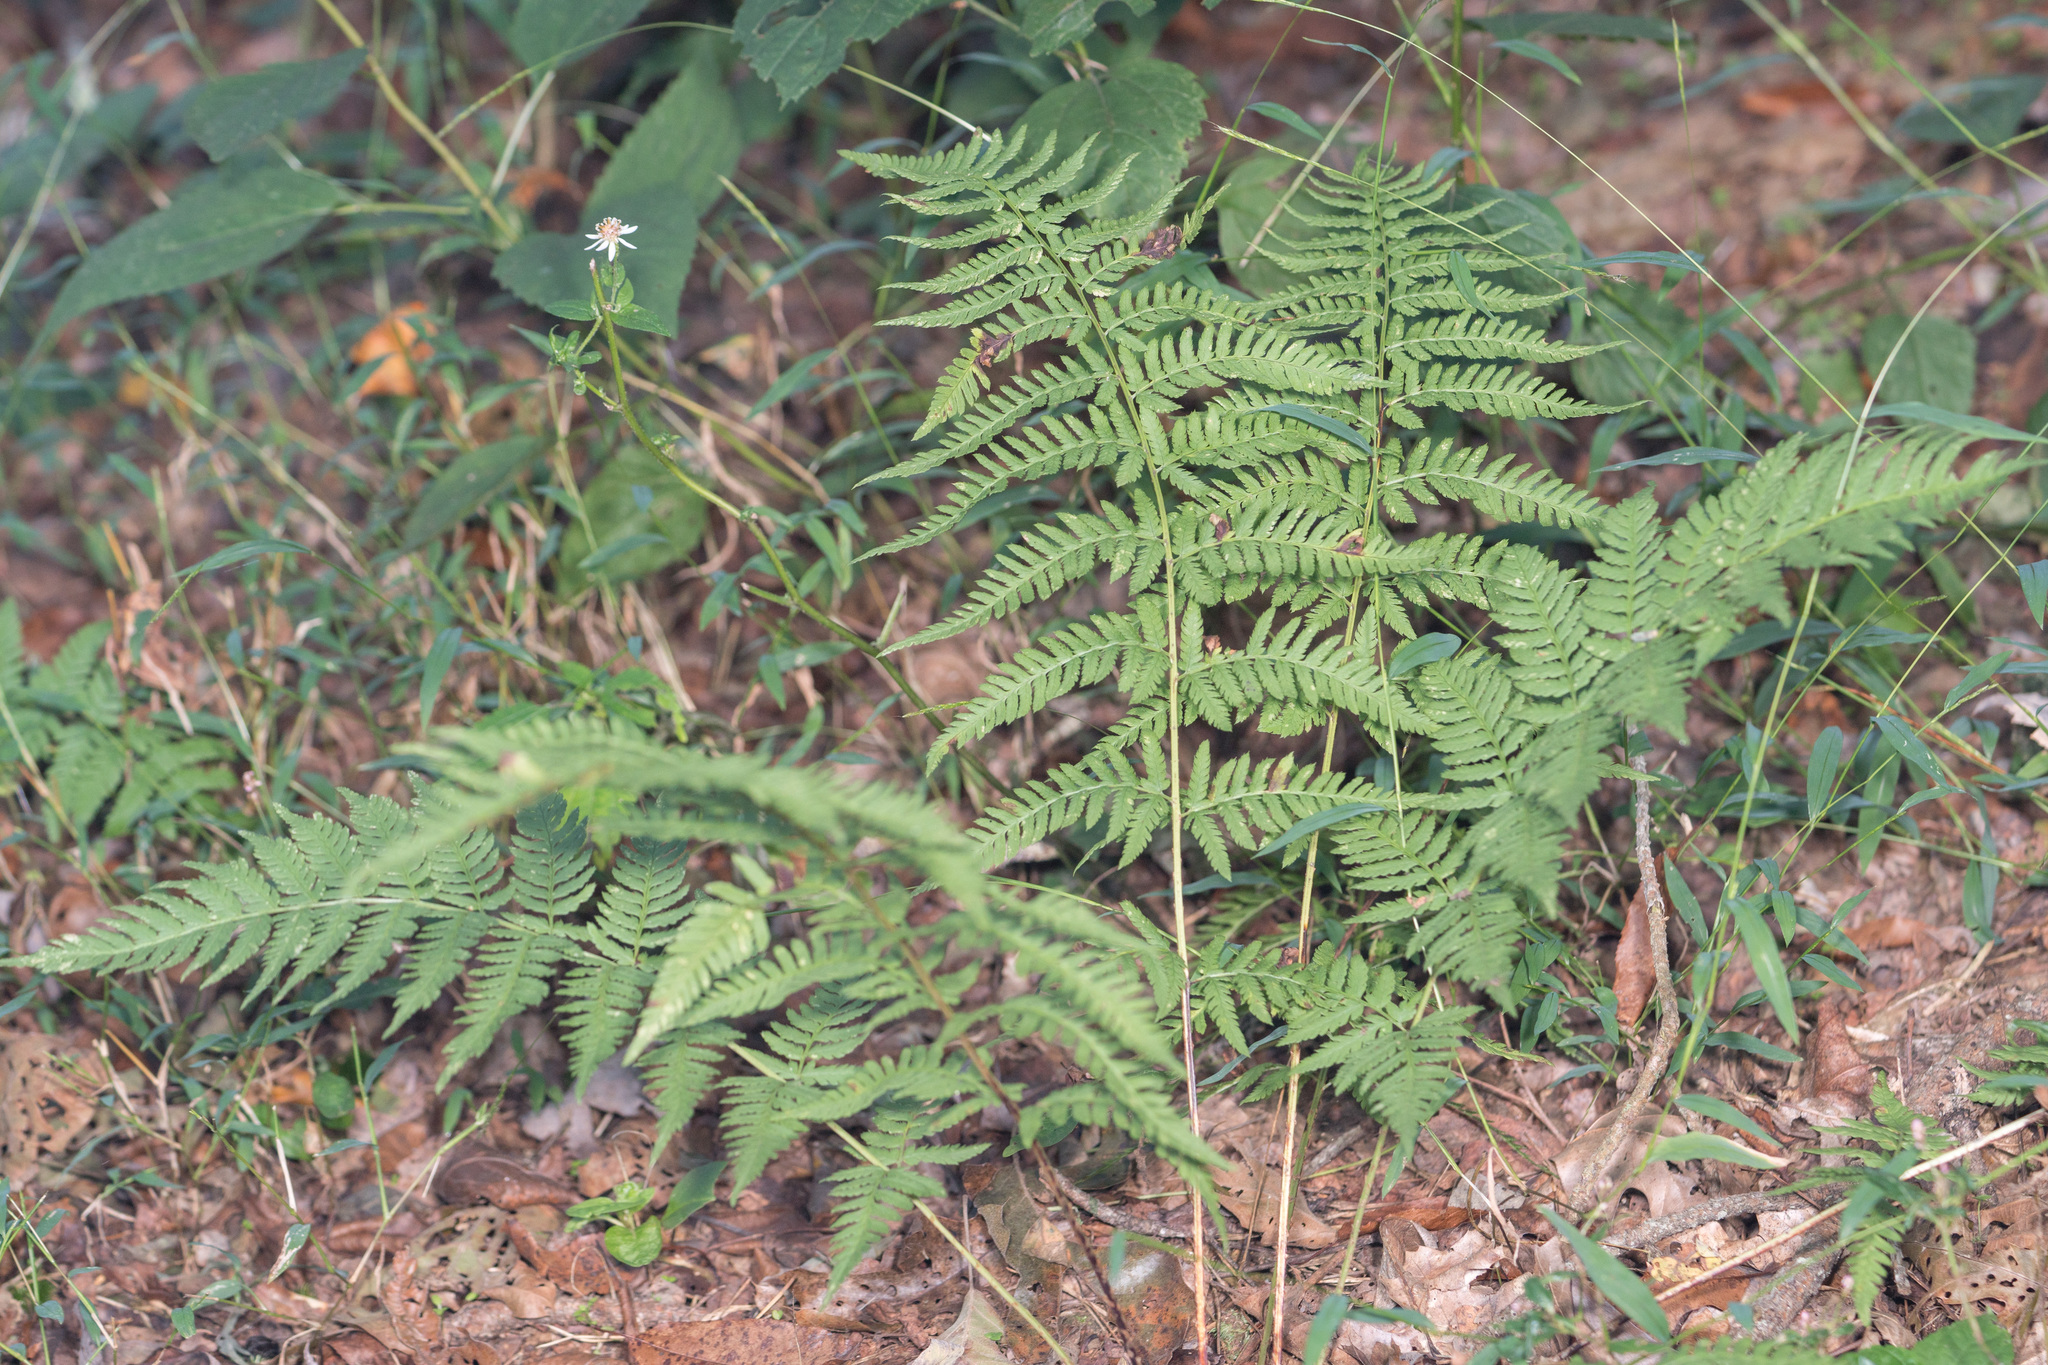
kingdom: Plantae
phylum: Tracheophyta
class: Polypodiopsida
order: Polypodiales
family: Dryopteridaceae
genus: Dryopteris
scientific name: Dryopteris carthusiana
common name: Narrow buckler-fern
